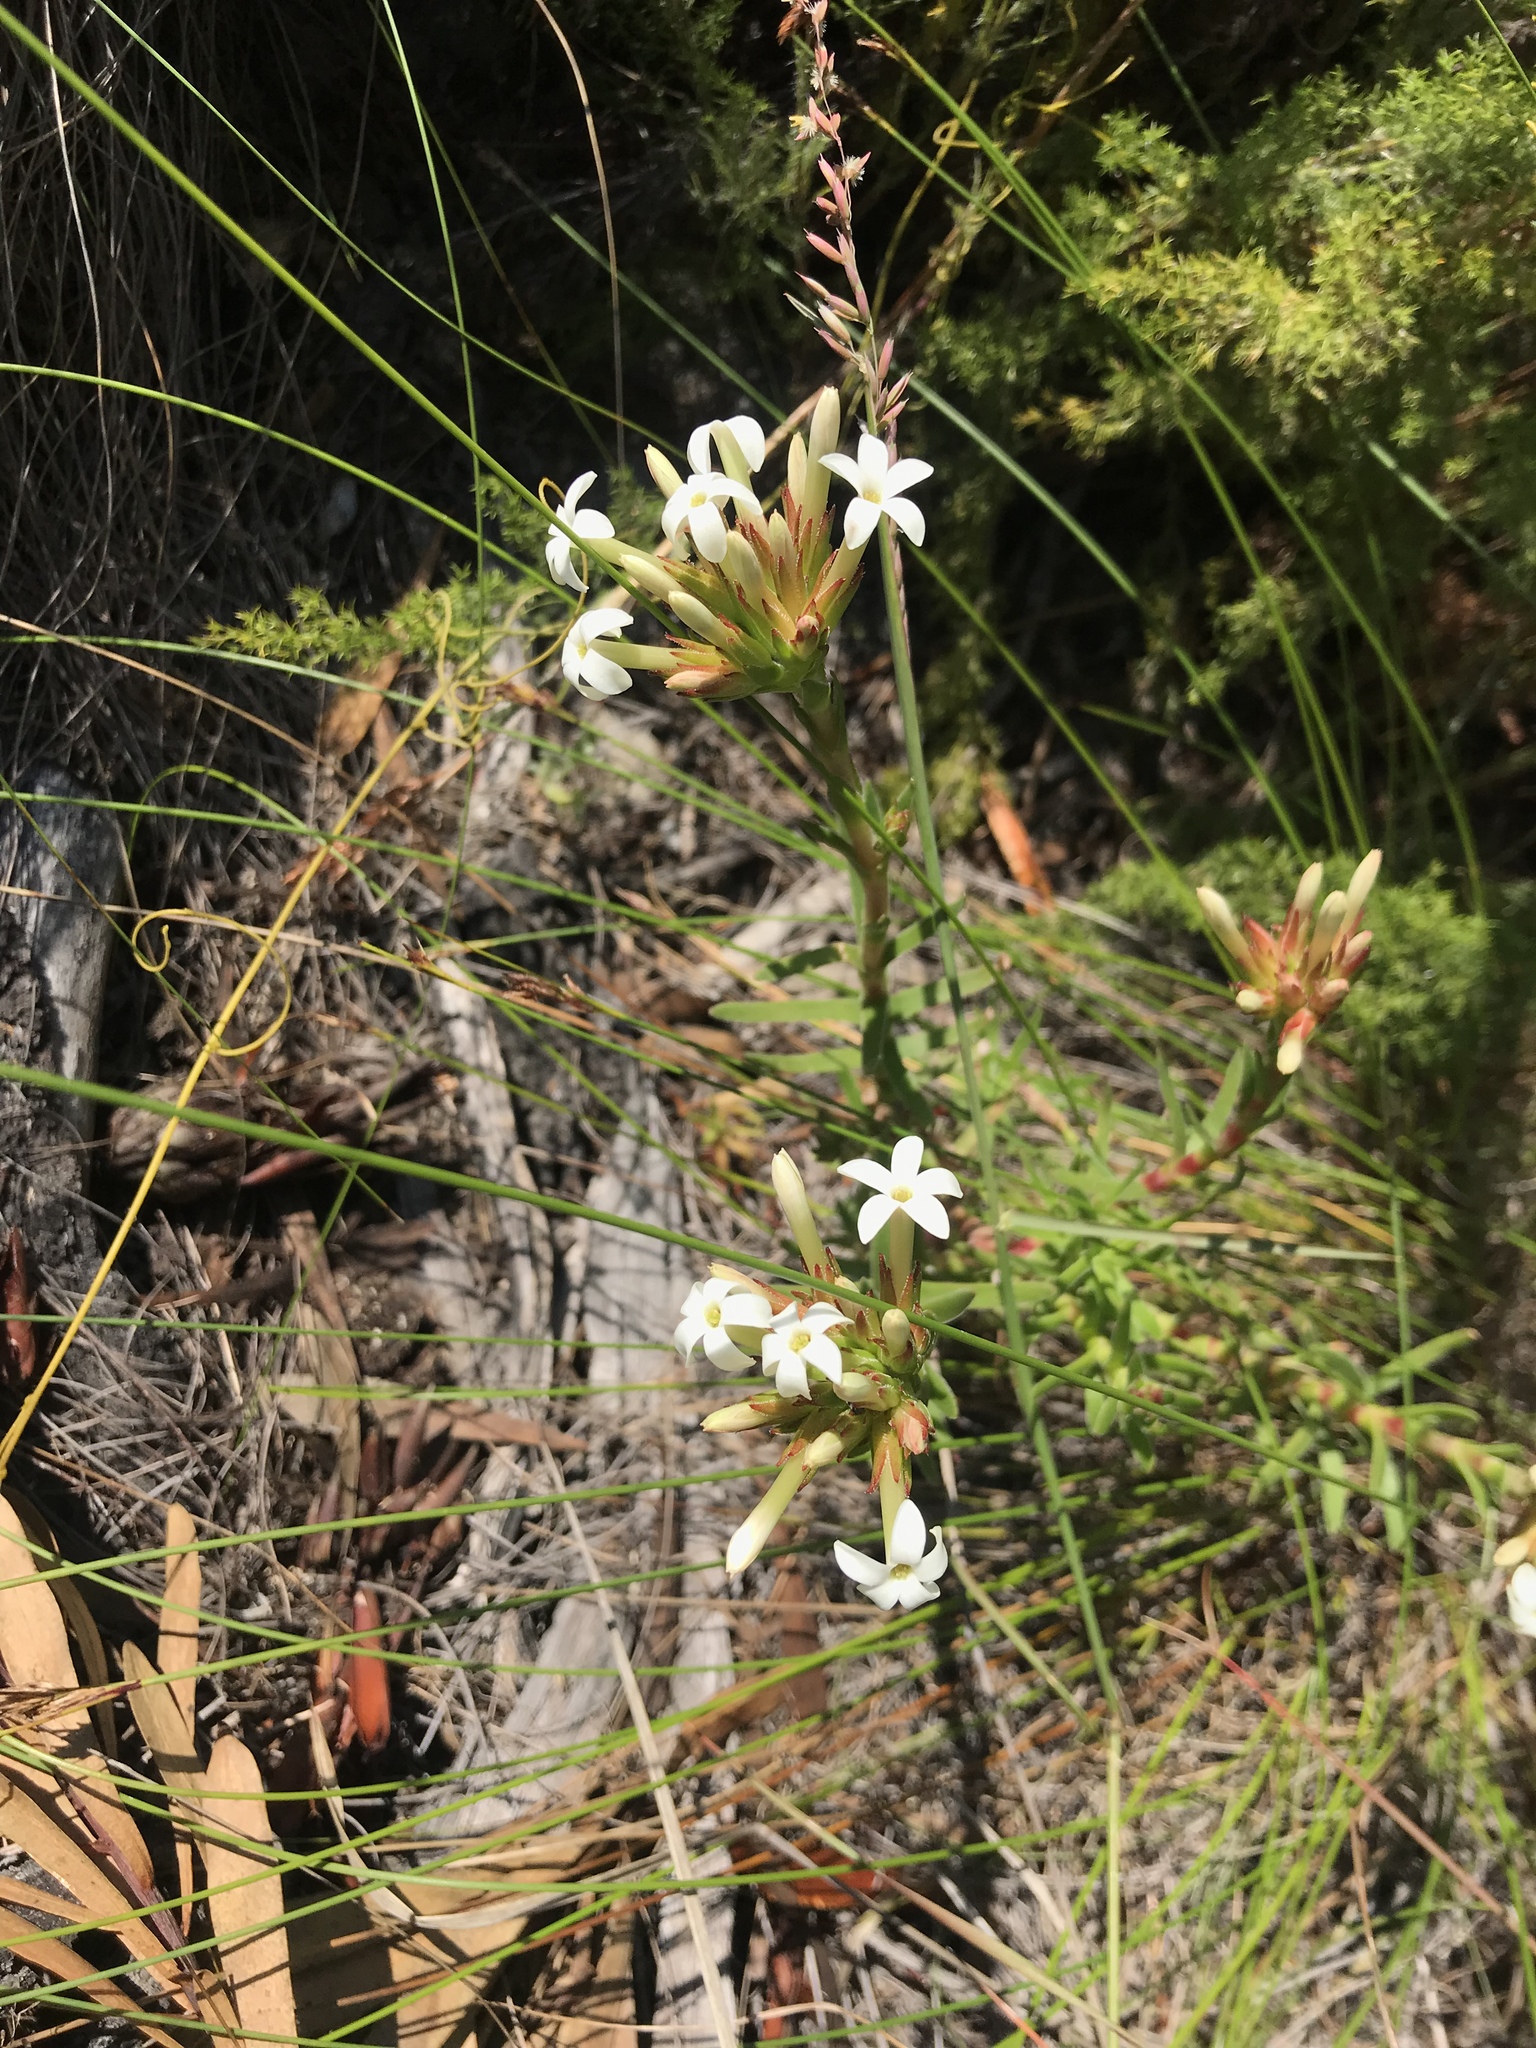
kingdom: Plantae
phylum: Tracheophyta
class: Magnoliopsida
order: Saxifragales
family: Crassulaceae
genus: Crassula
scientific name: Crassula fascicularis
